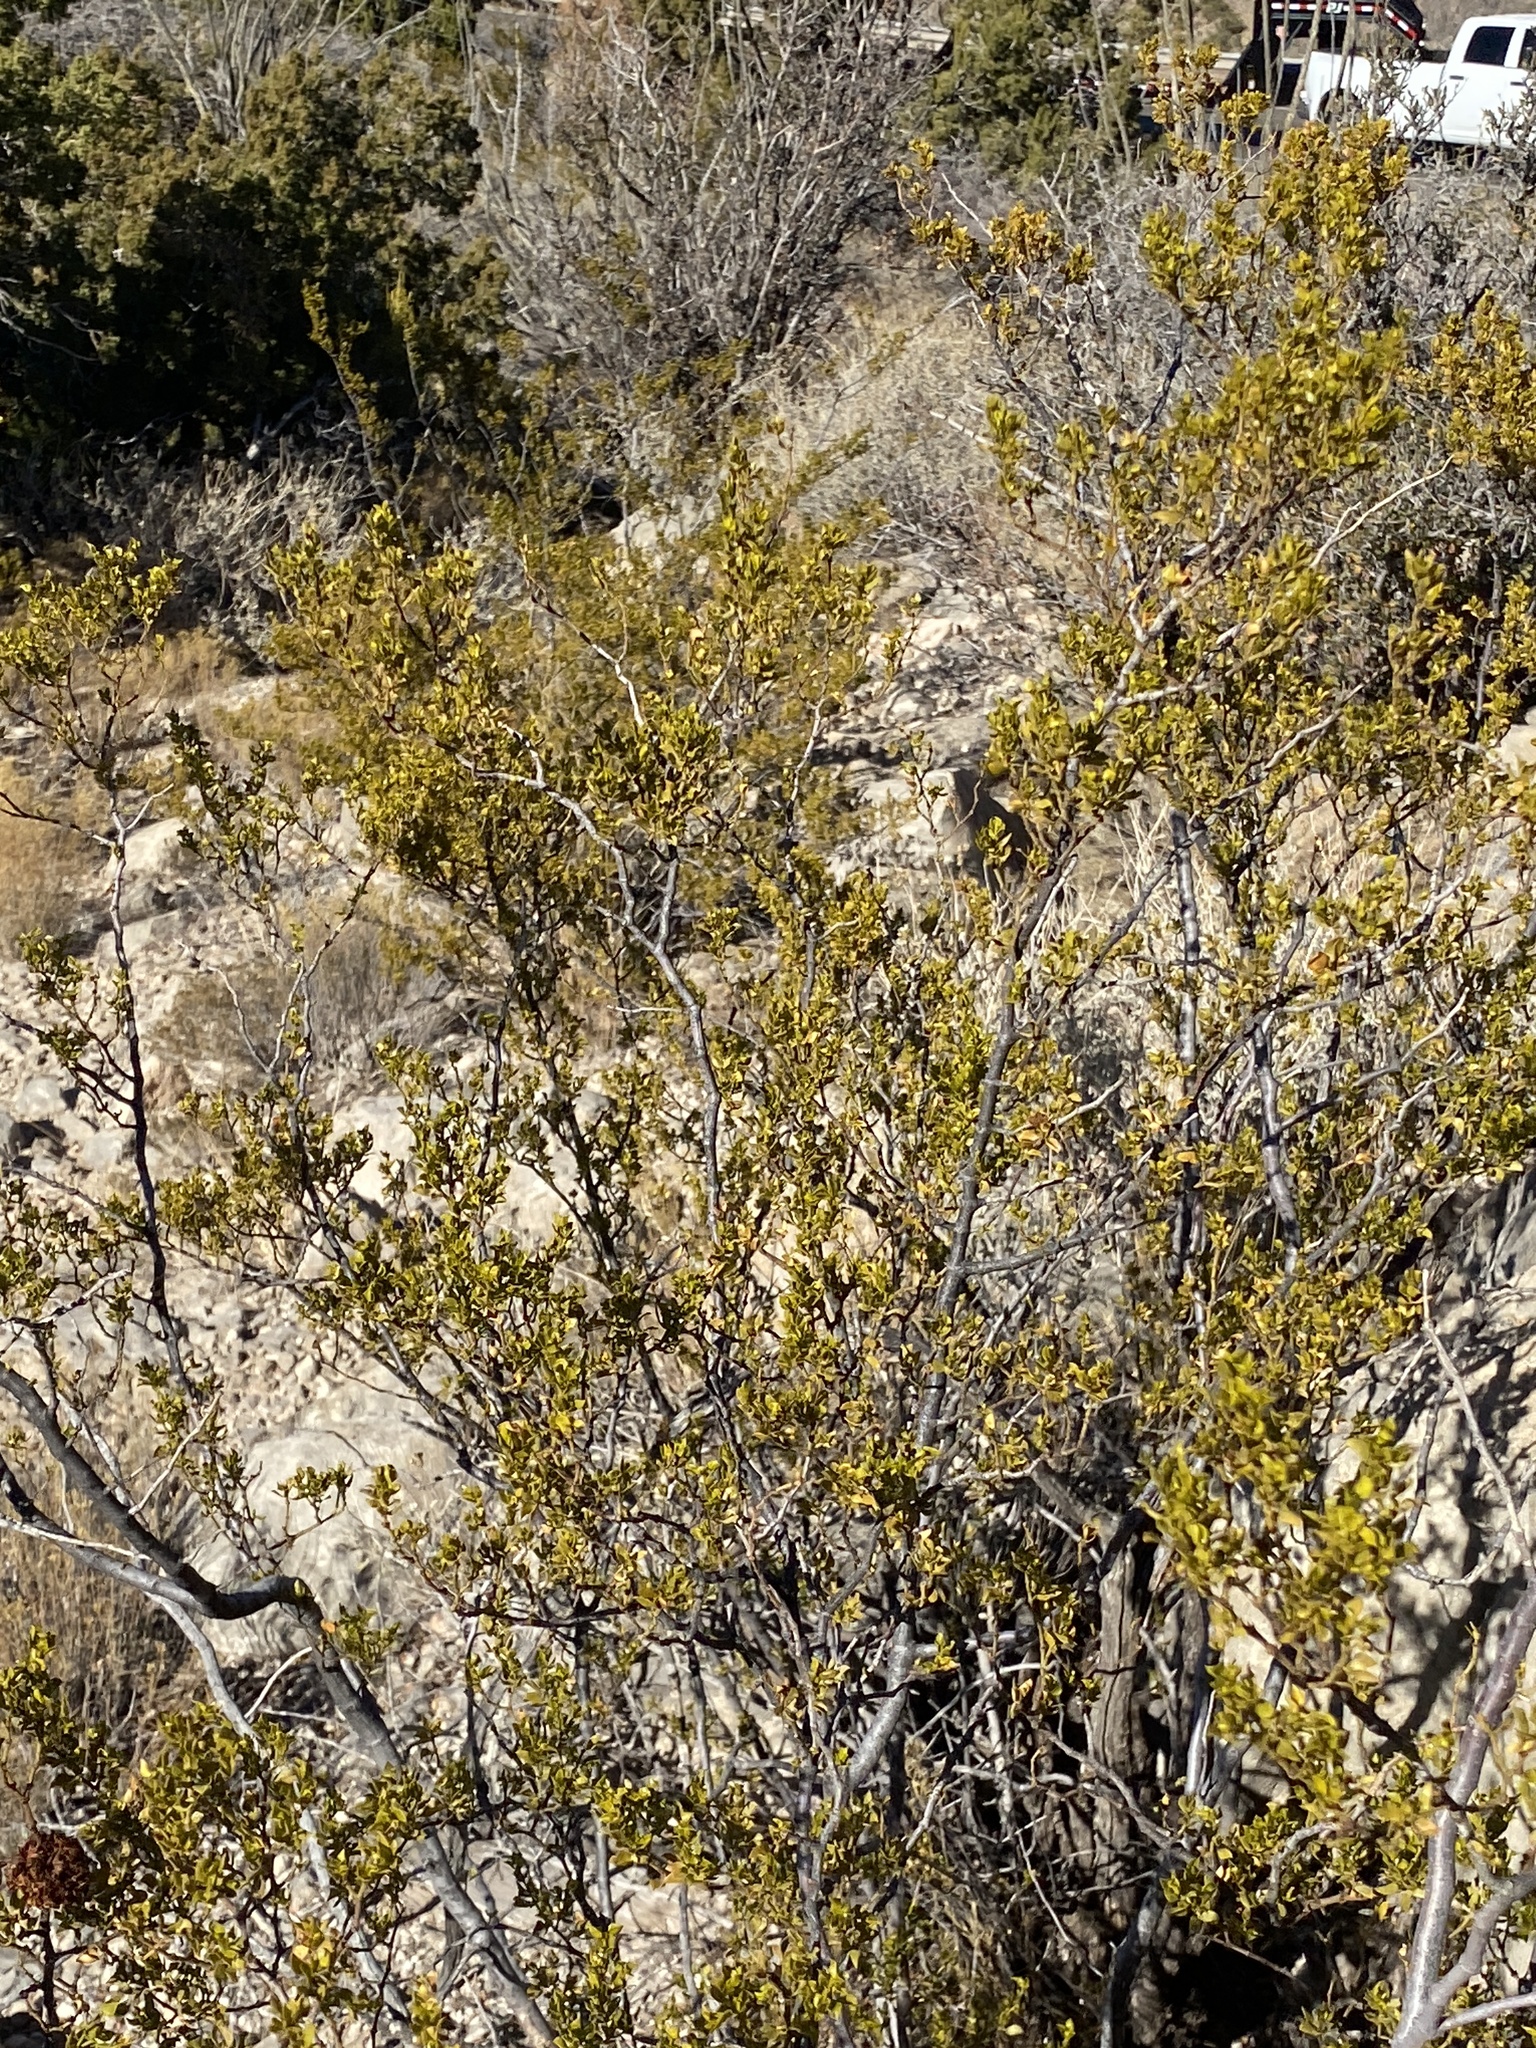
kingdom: Plantae
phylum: Tracheophyta
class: Magnoliopsida
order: Zygophyllales
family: Zygophyllaceae
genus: Larrea
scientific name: Larrea tridentata
